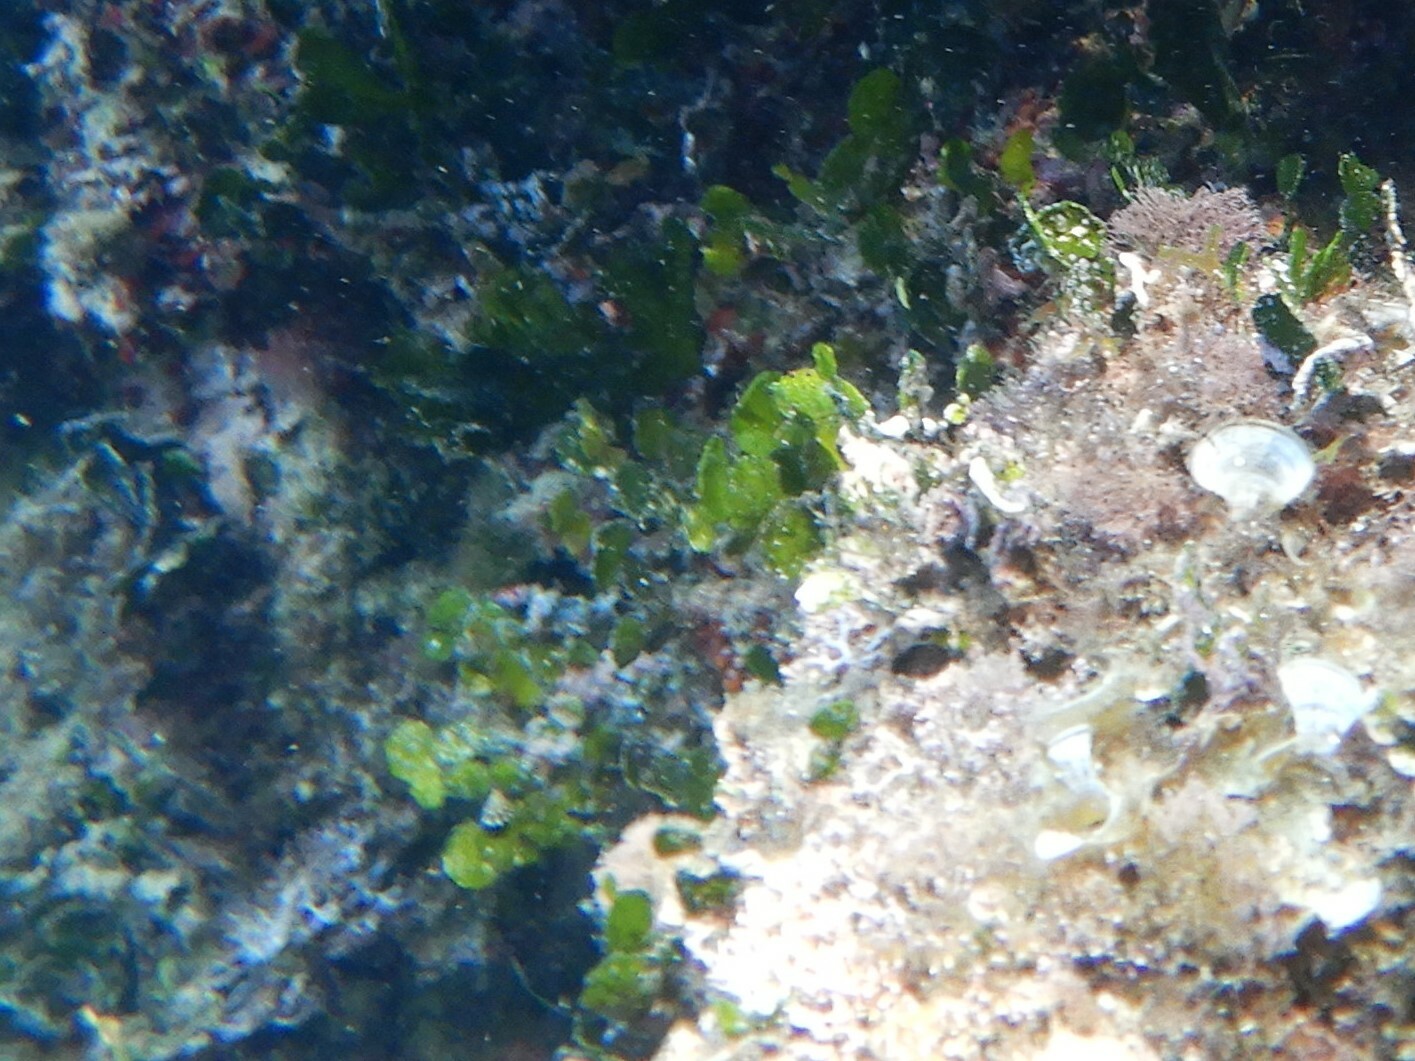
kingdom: Plantae
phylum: Chlorophyta
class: Ulvophyceae
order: Bryopsidales
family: Halimedaceae
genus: Halimeda
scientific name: Halimeda tuna
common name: Stalked lettuce leaf algae
